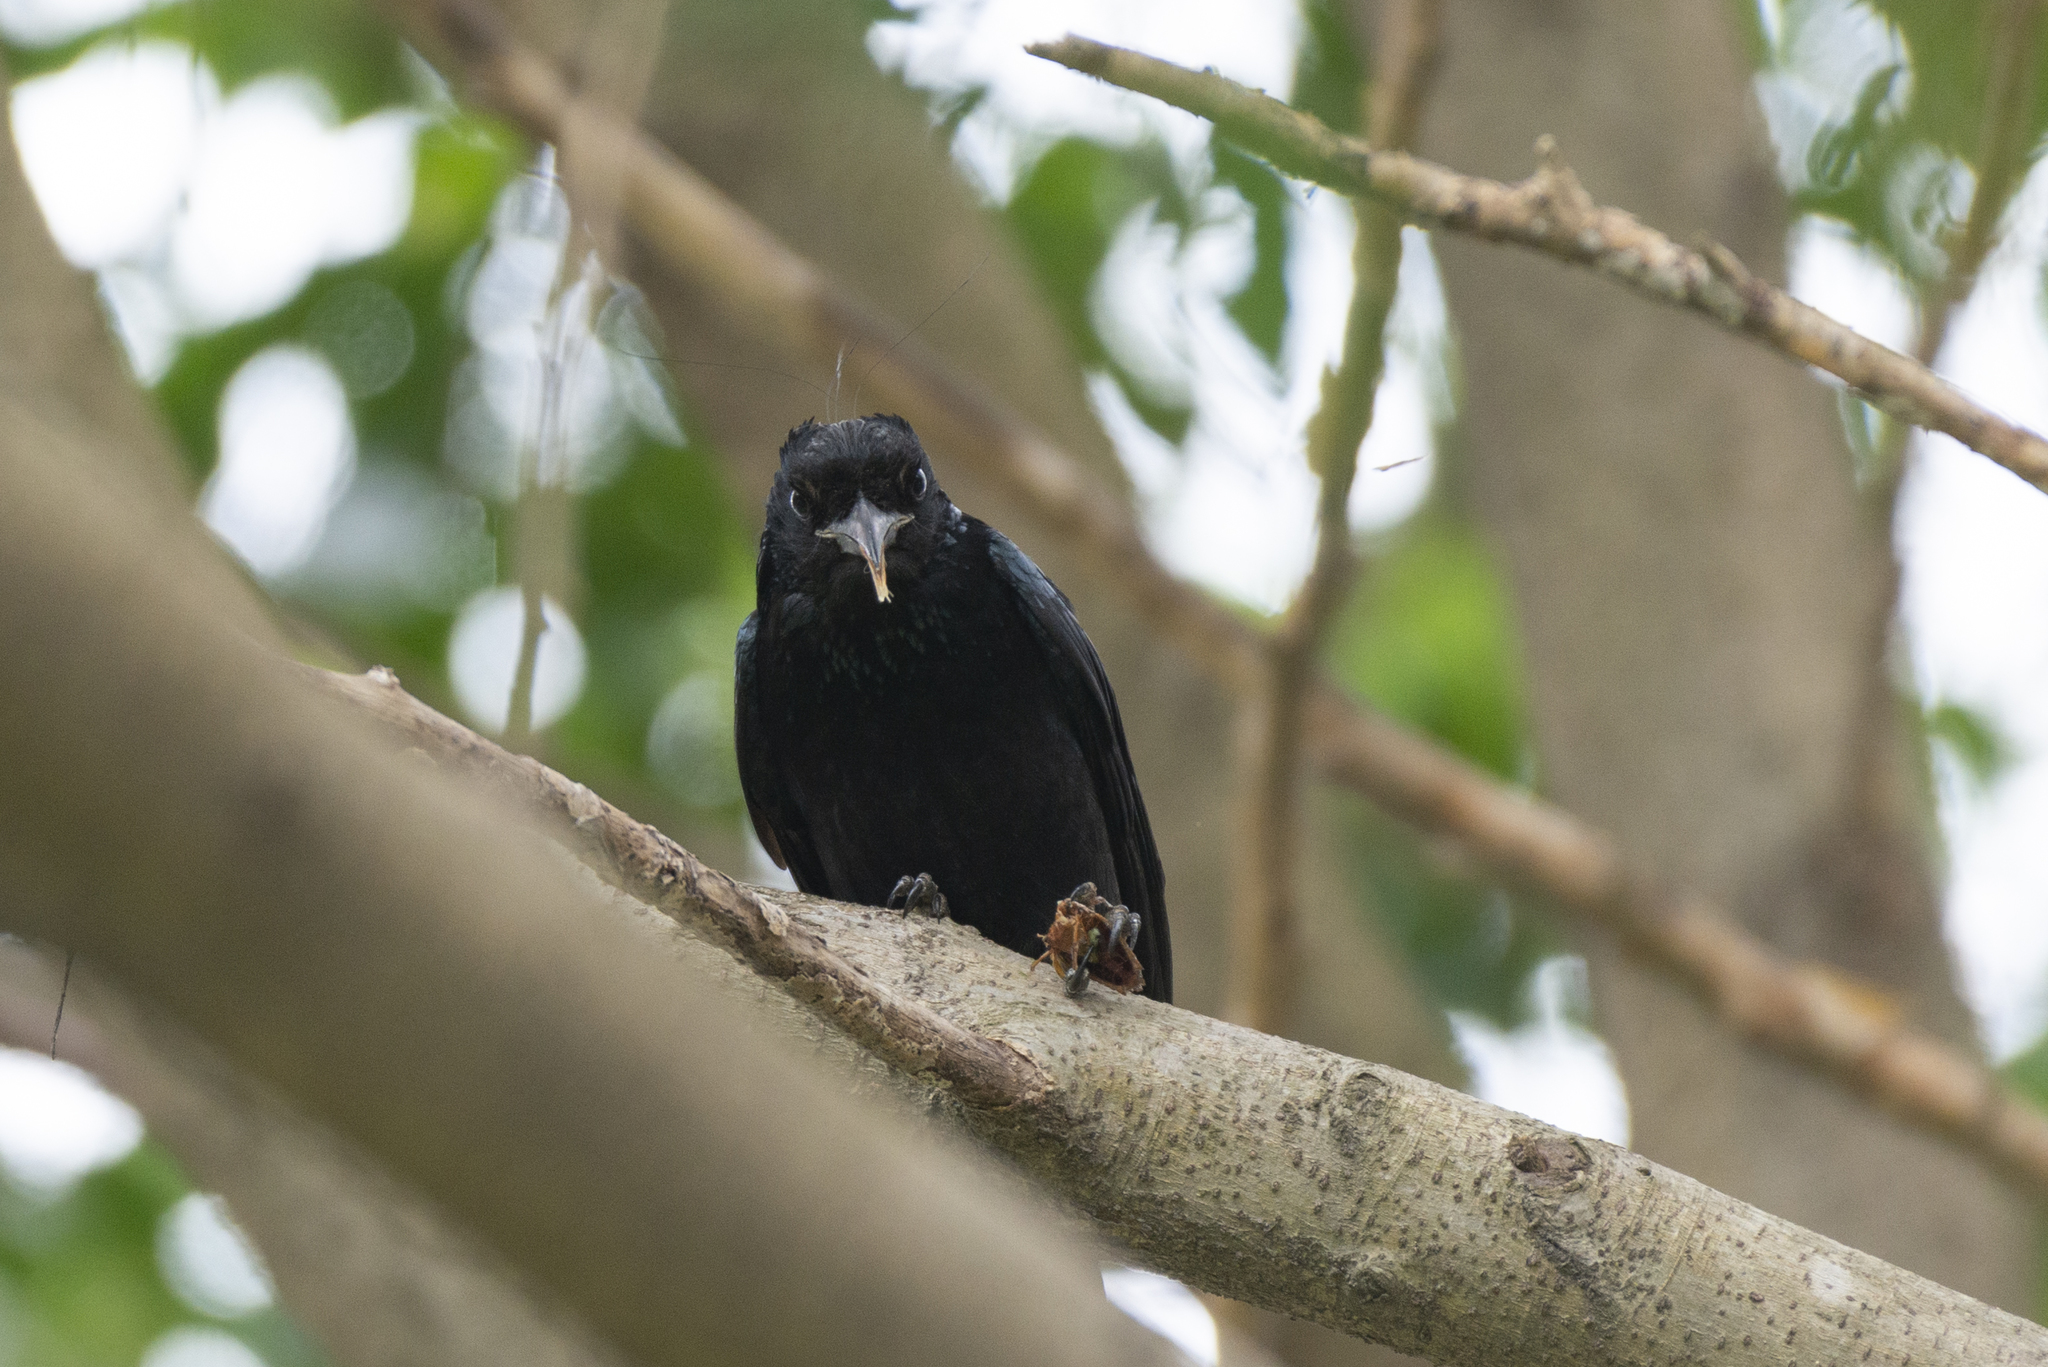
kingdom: Animalia
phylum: Chordata
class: Aves
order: Passeriformes
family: Dicruridae
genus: Dicrurus
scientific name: Dicrurus hottentottus
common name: Hair-crested drongo
